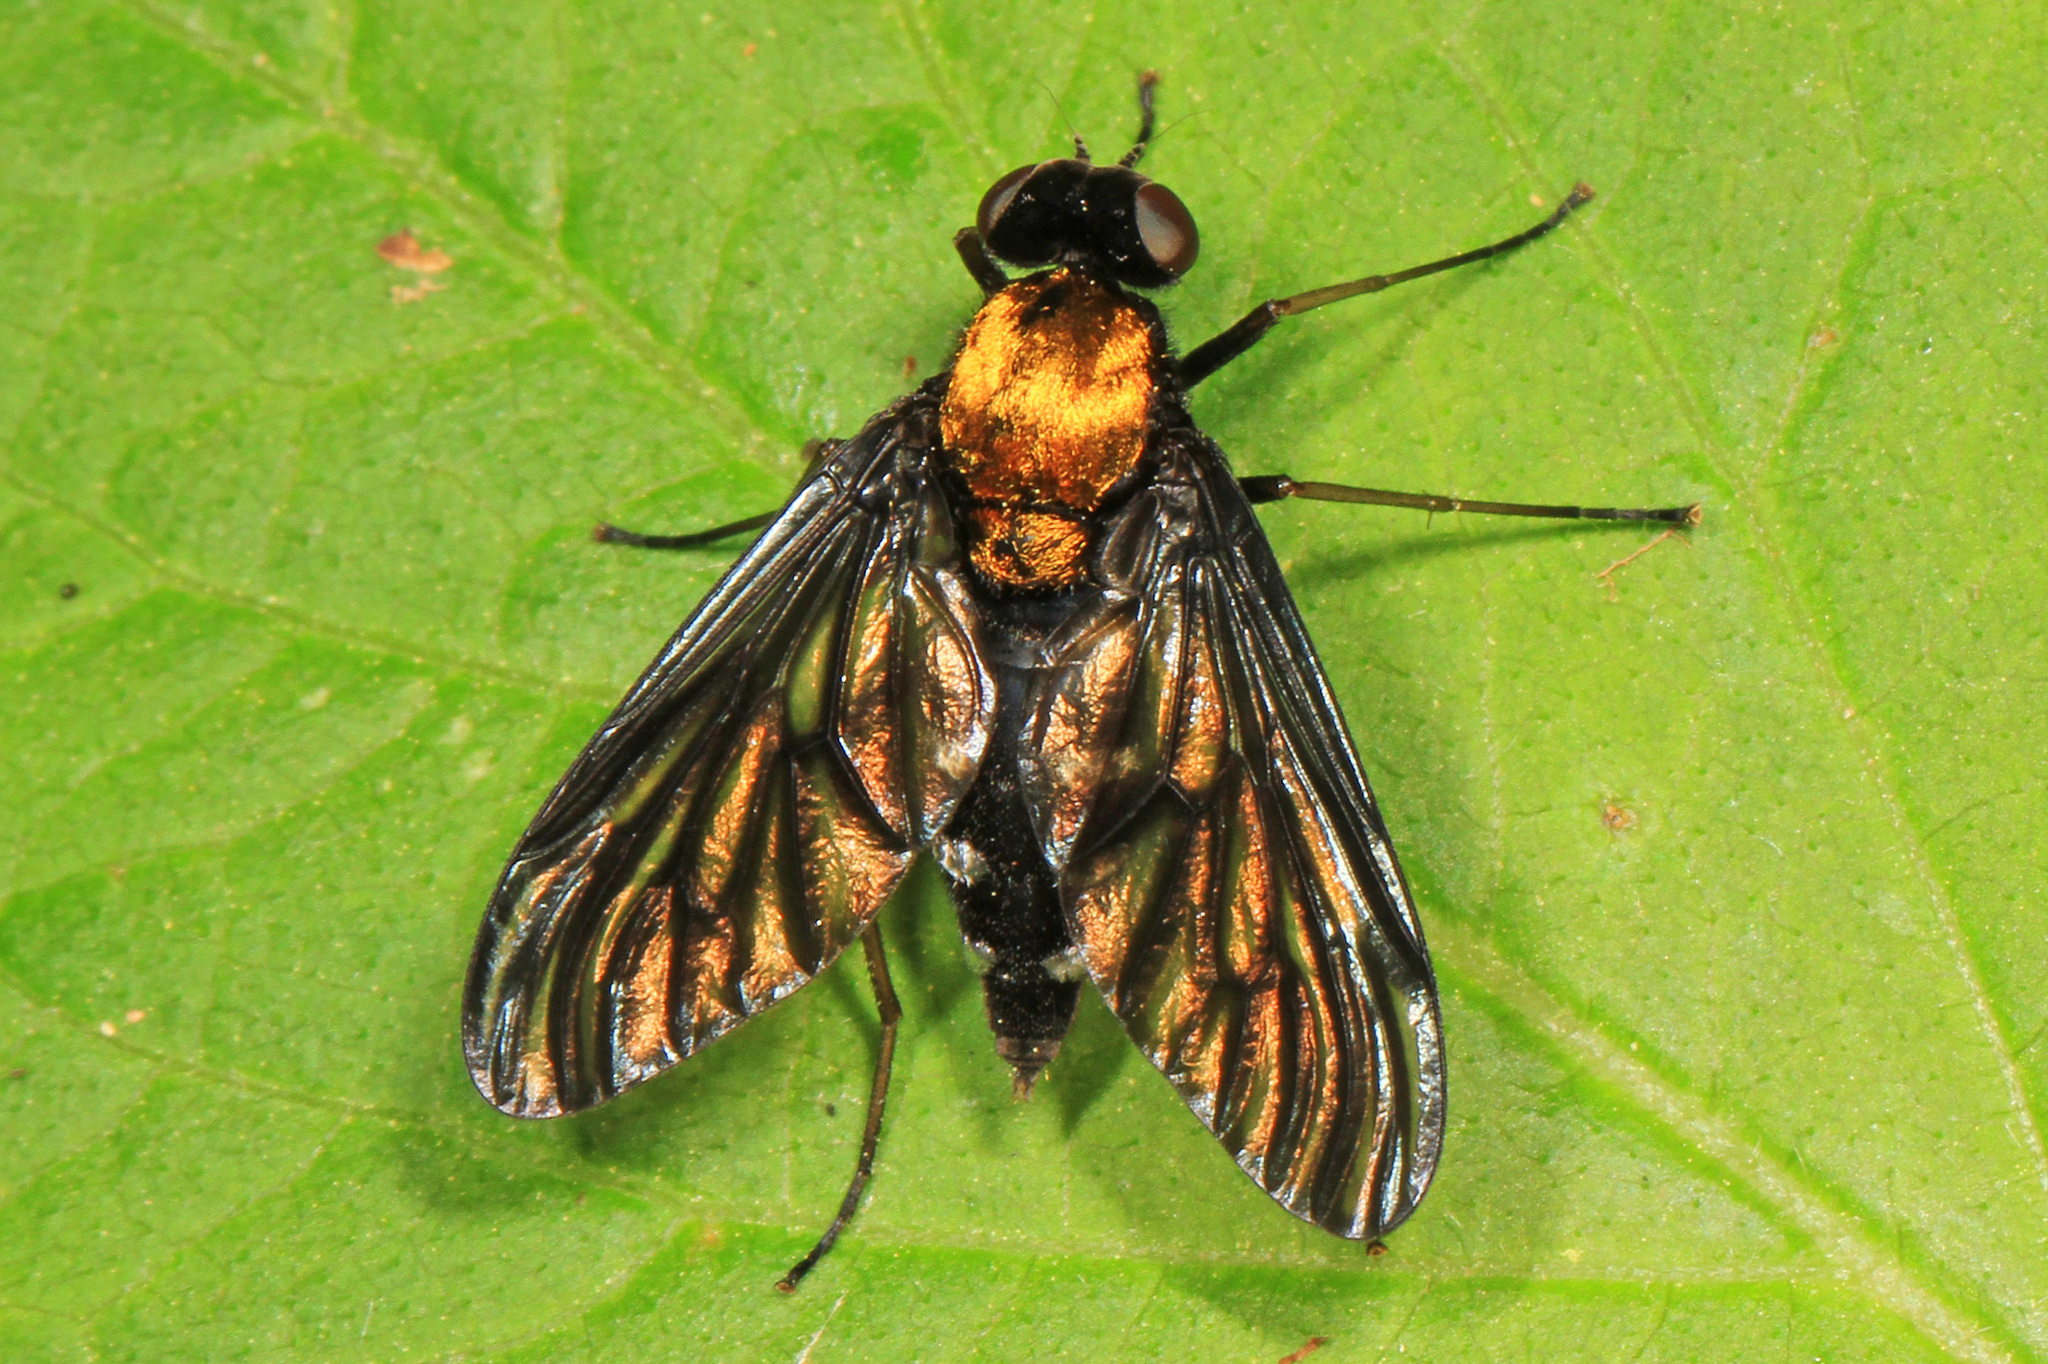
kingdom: Animalia
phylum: Arthropoda
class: Insecta
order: Diptera
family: Rhagionidae
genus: Chrysopilus
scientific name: Chrysopilus thoracicus
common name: Golden-backed snipe fly
